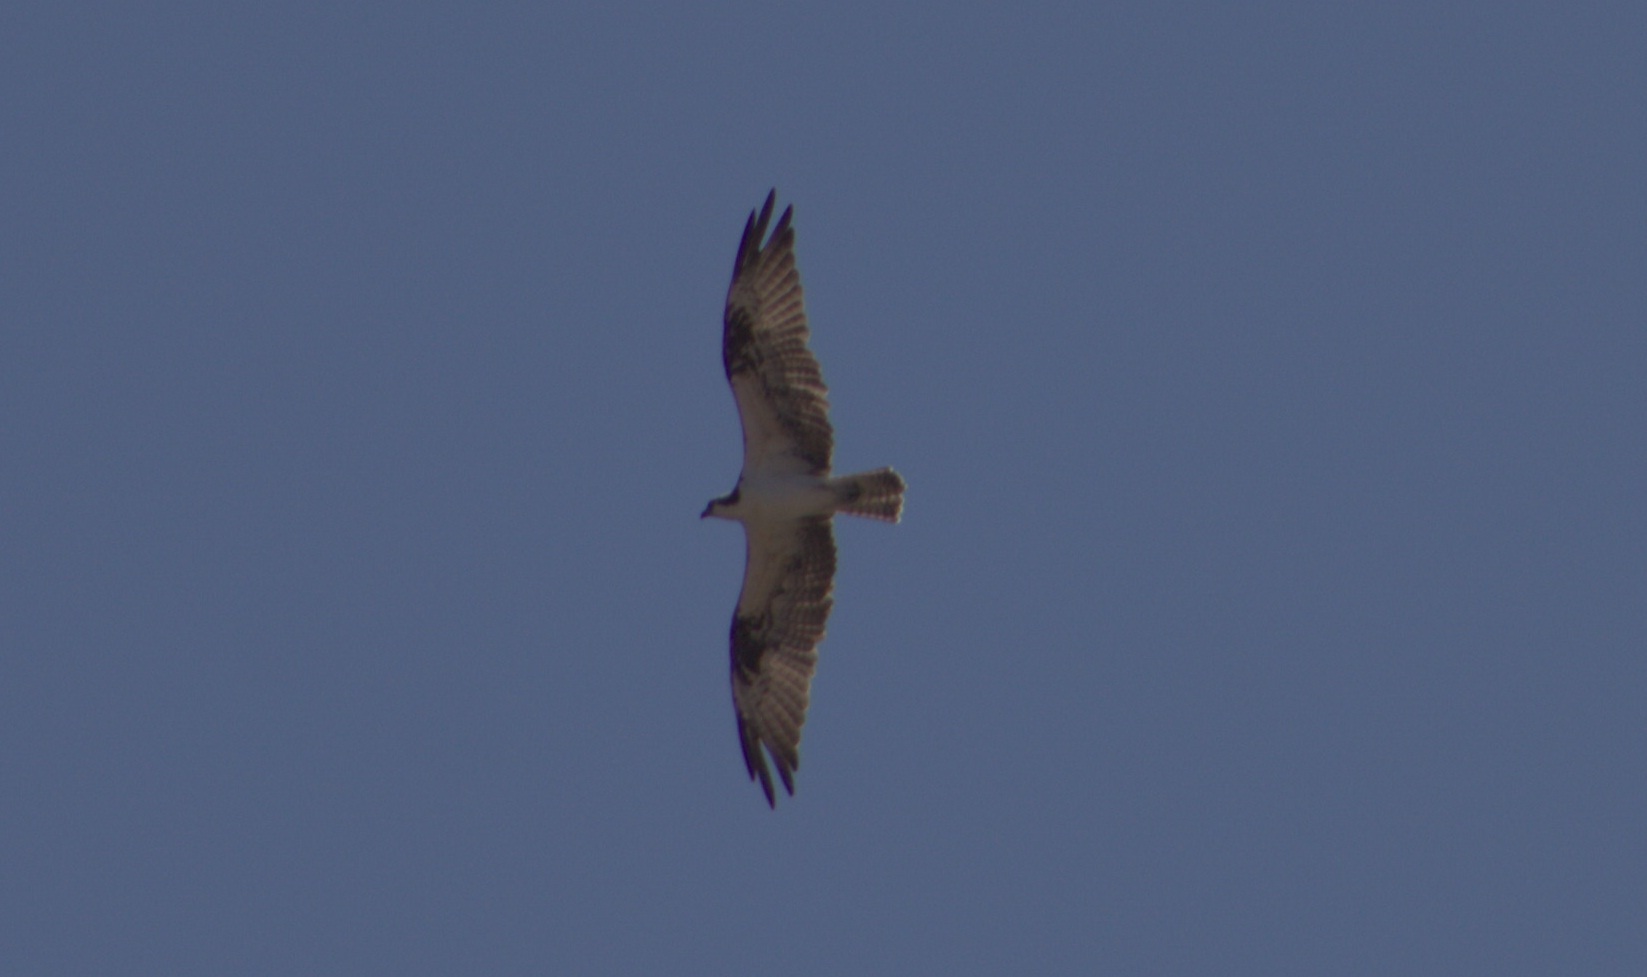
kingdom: Animalia
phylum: Chordata
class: Aves
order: Accipitriformes
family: Pandionidae
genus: Pandion
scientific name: Pandion haliaetus
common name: Osprey
